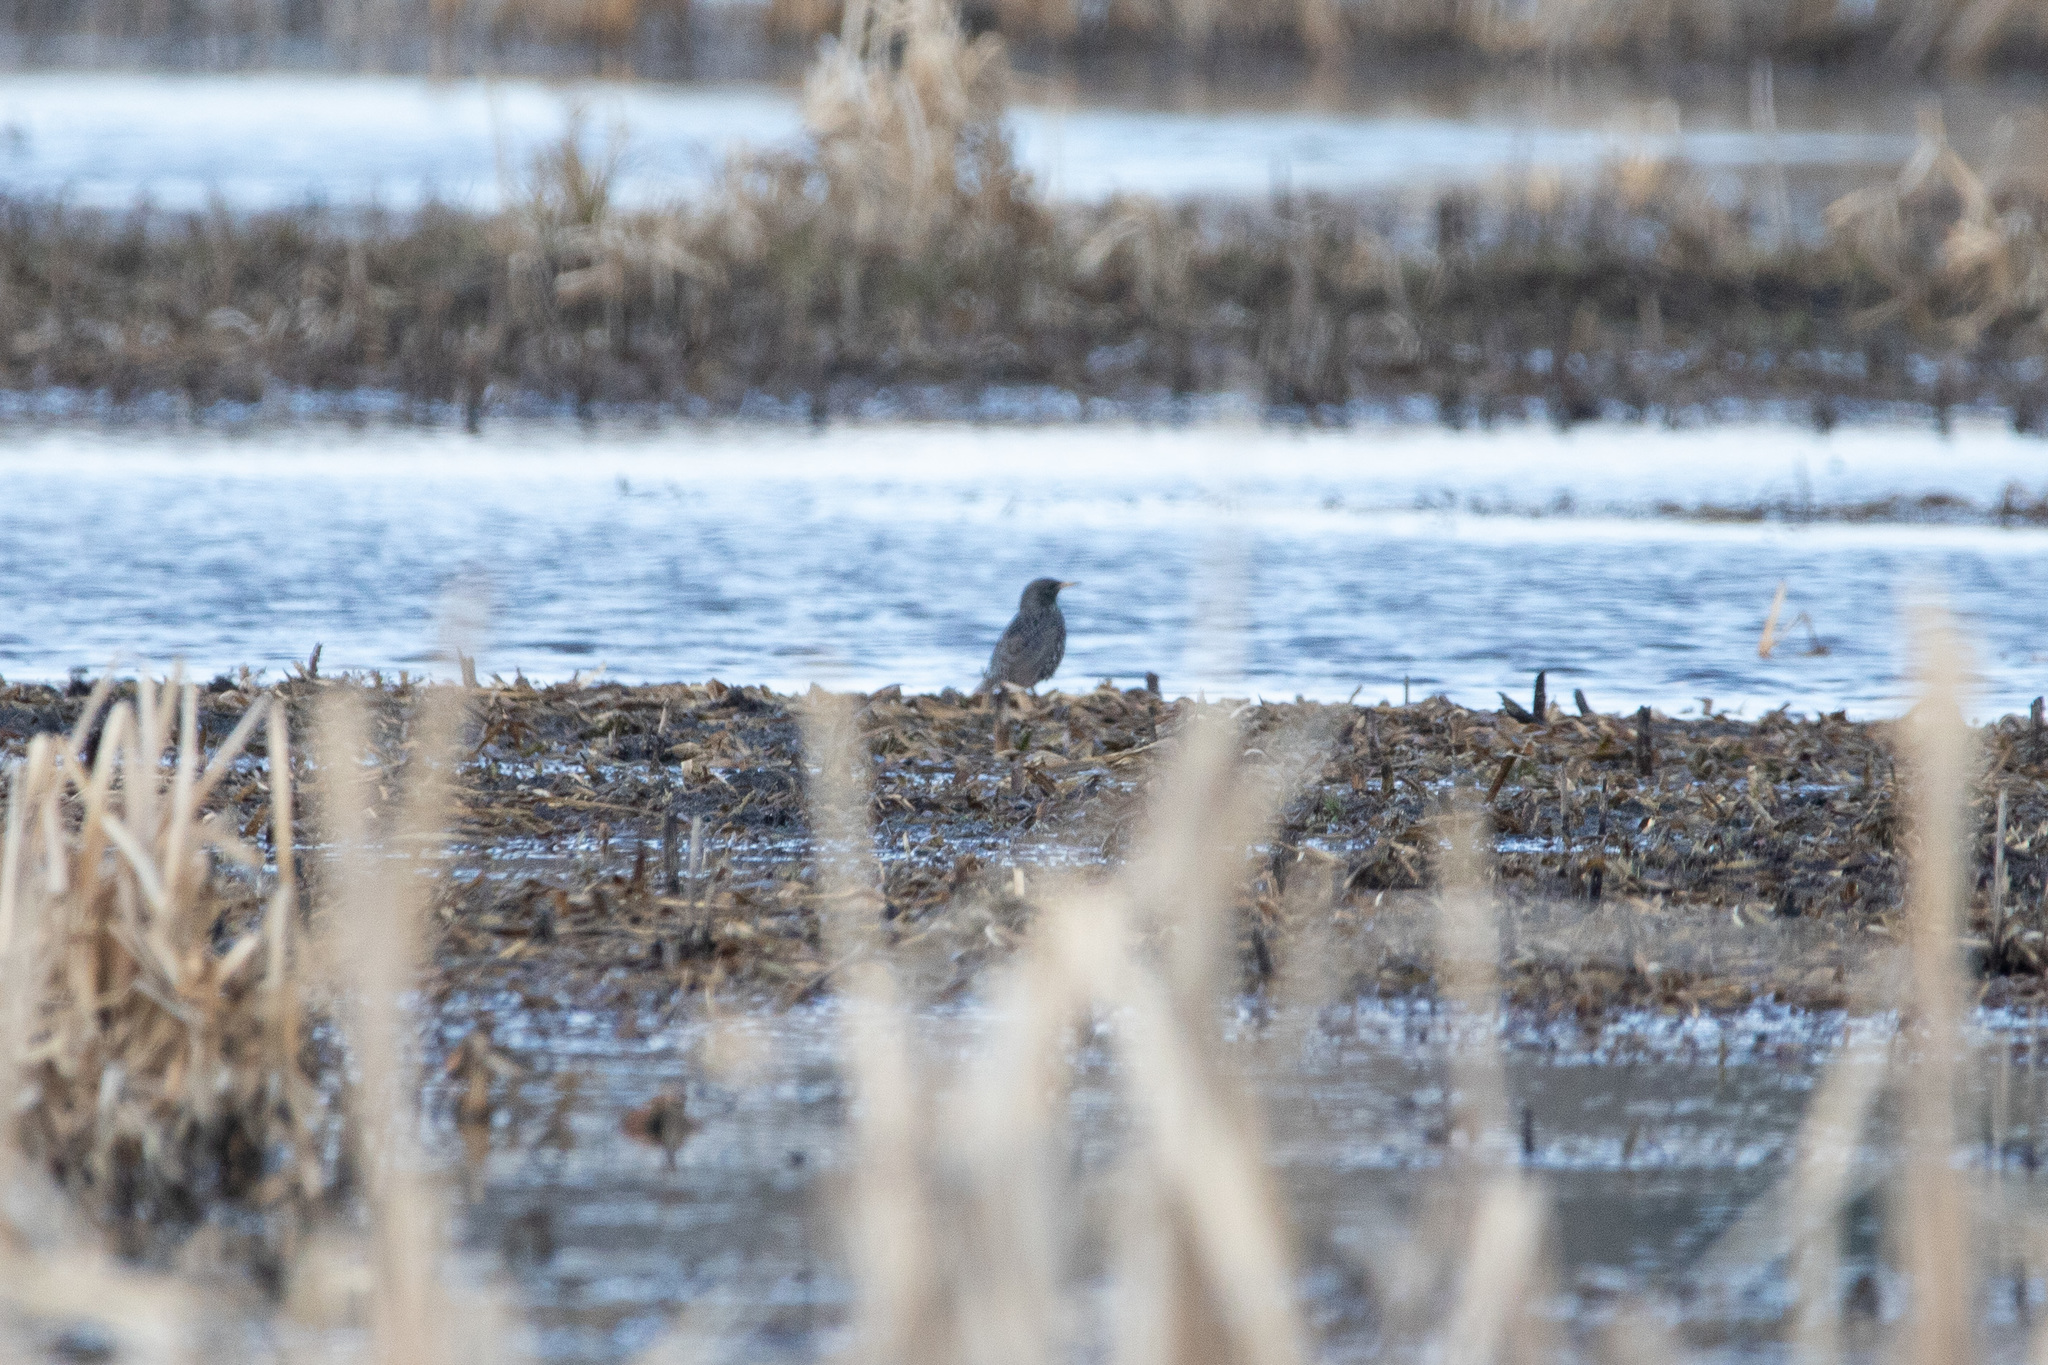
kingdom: Animalia
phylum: Chordata
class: Aves
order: Passeriformes
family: Sturnidae
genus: Sturnus
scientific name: Sturnus vulgaris
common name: Common starling
